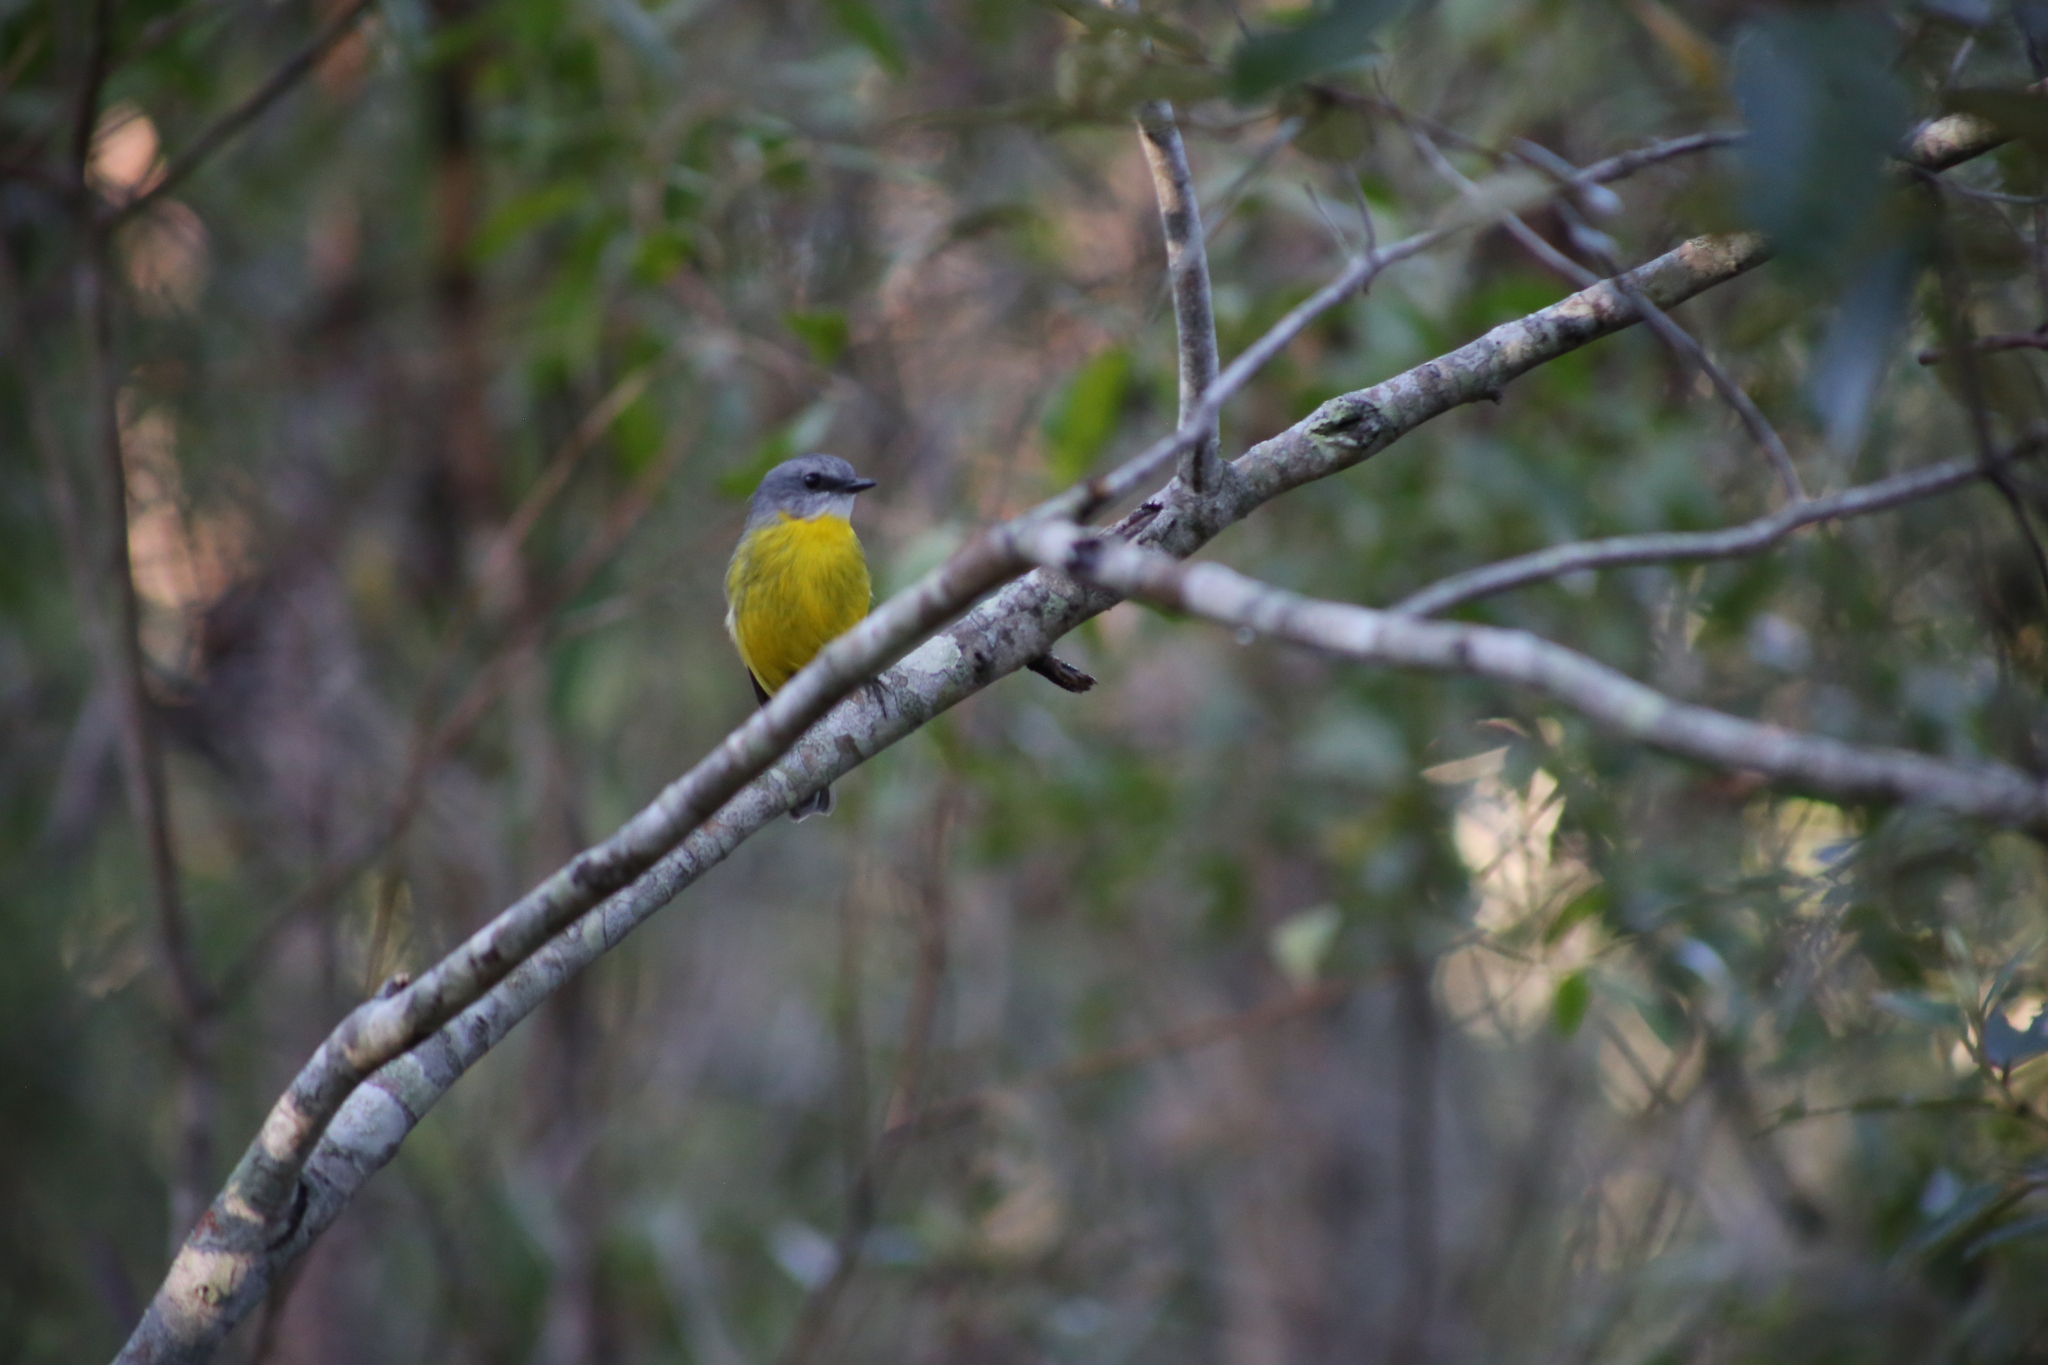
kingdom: Animalia
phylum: Chordata
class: Aves
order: Passeriformes
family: Petroicidae
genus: Eopsaltria
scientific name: Eopsaltria australis
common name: Eastern yellow robin
